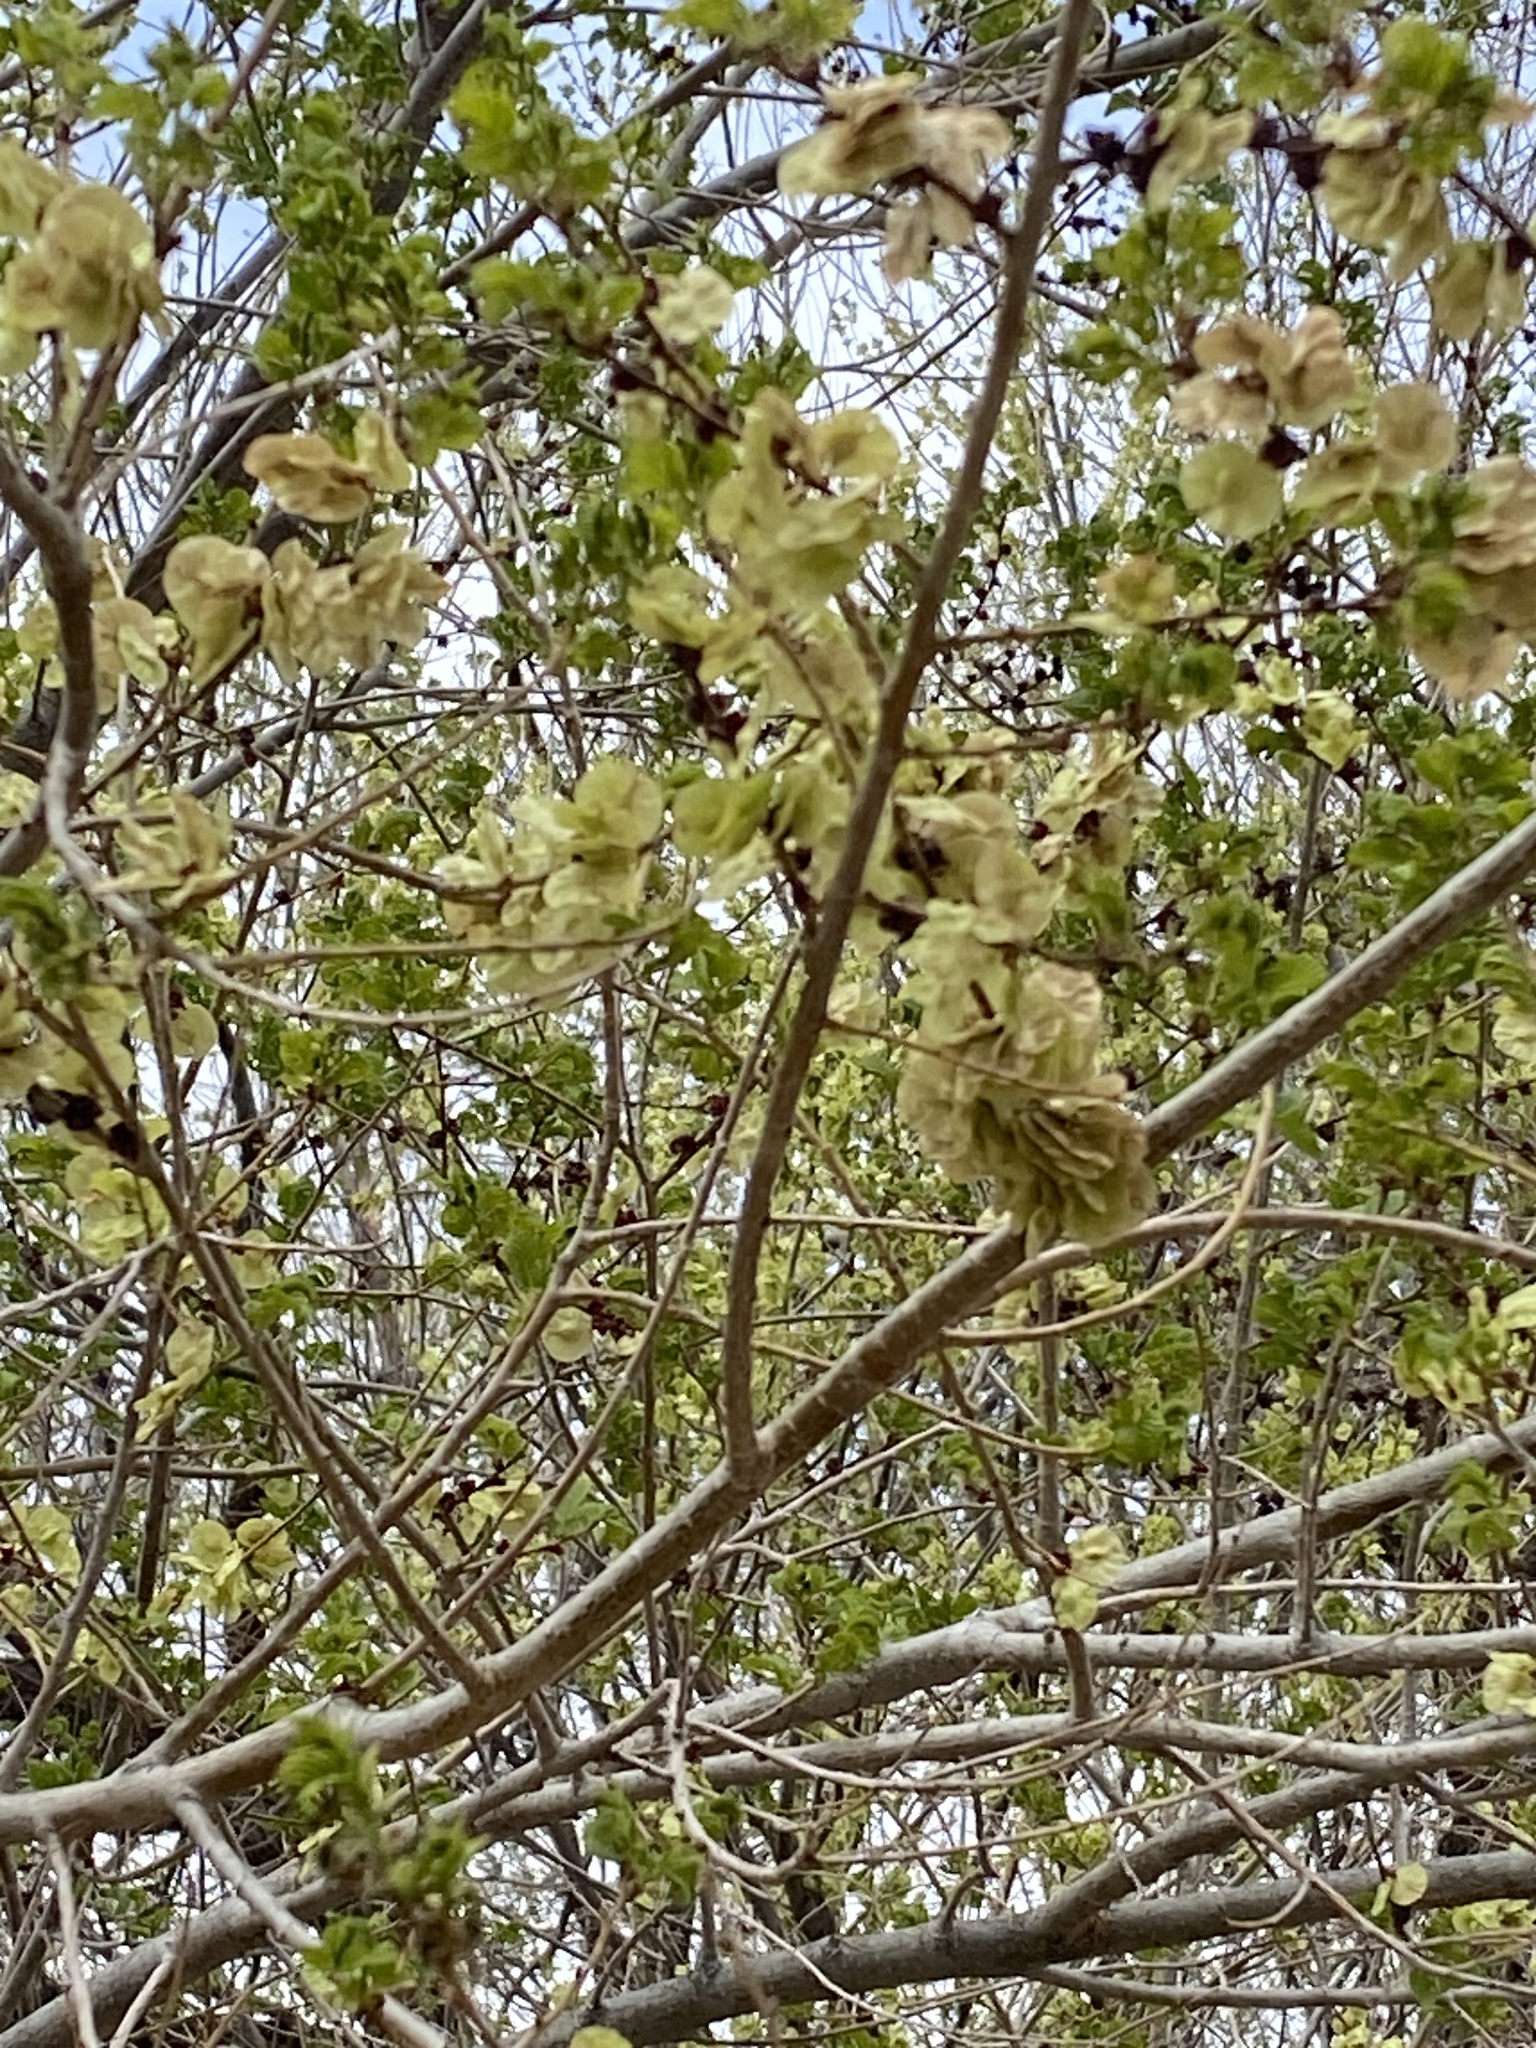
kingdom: Plantae
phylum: Tracheophyta
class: Magnoliopsida
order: Rosales
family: Ulmaceae
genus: Ulmus
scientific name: Ulmus pumila
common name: Siberian elm
